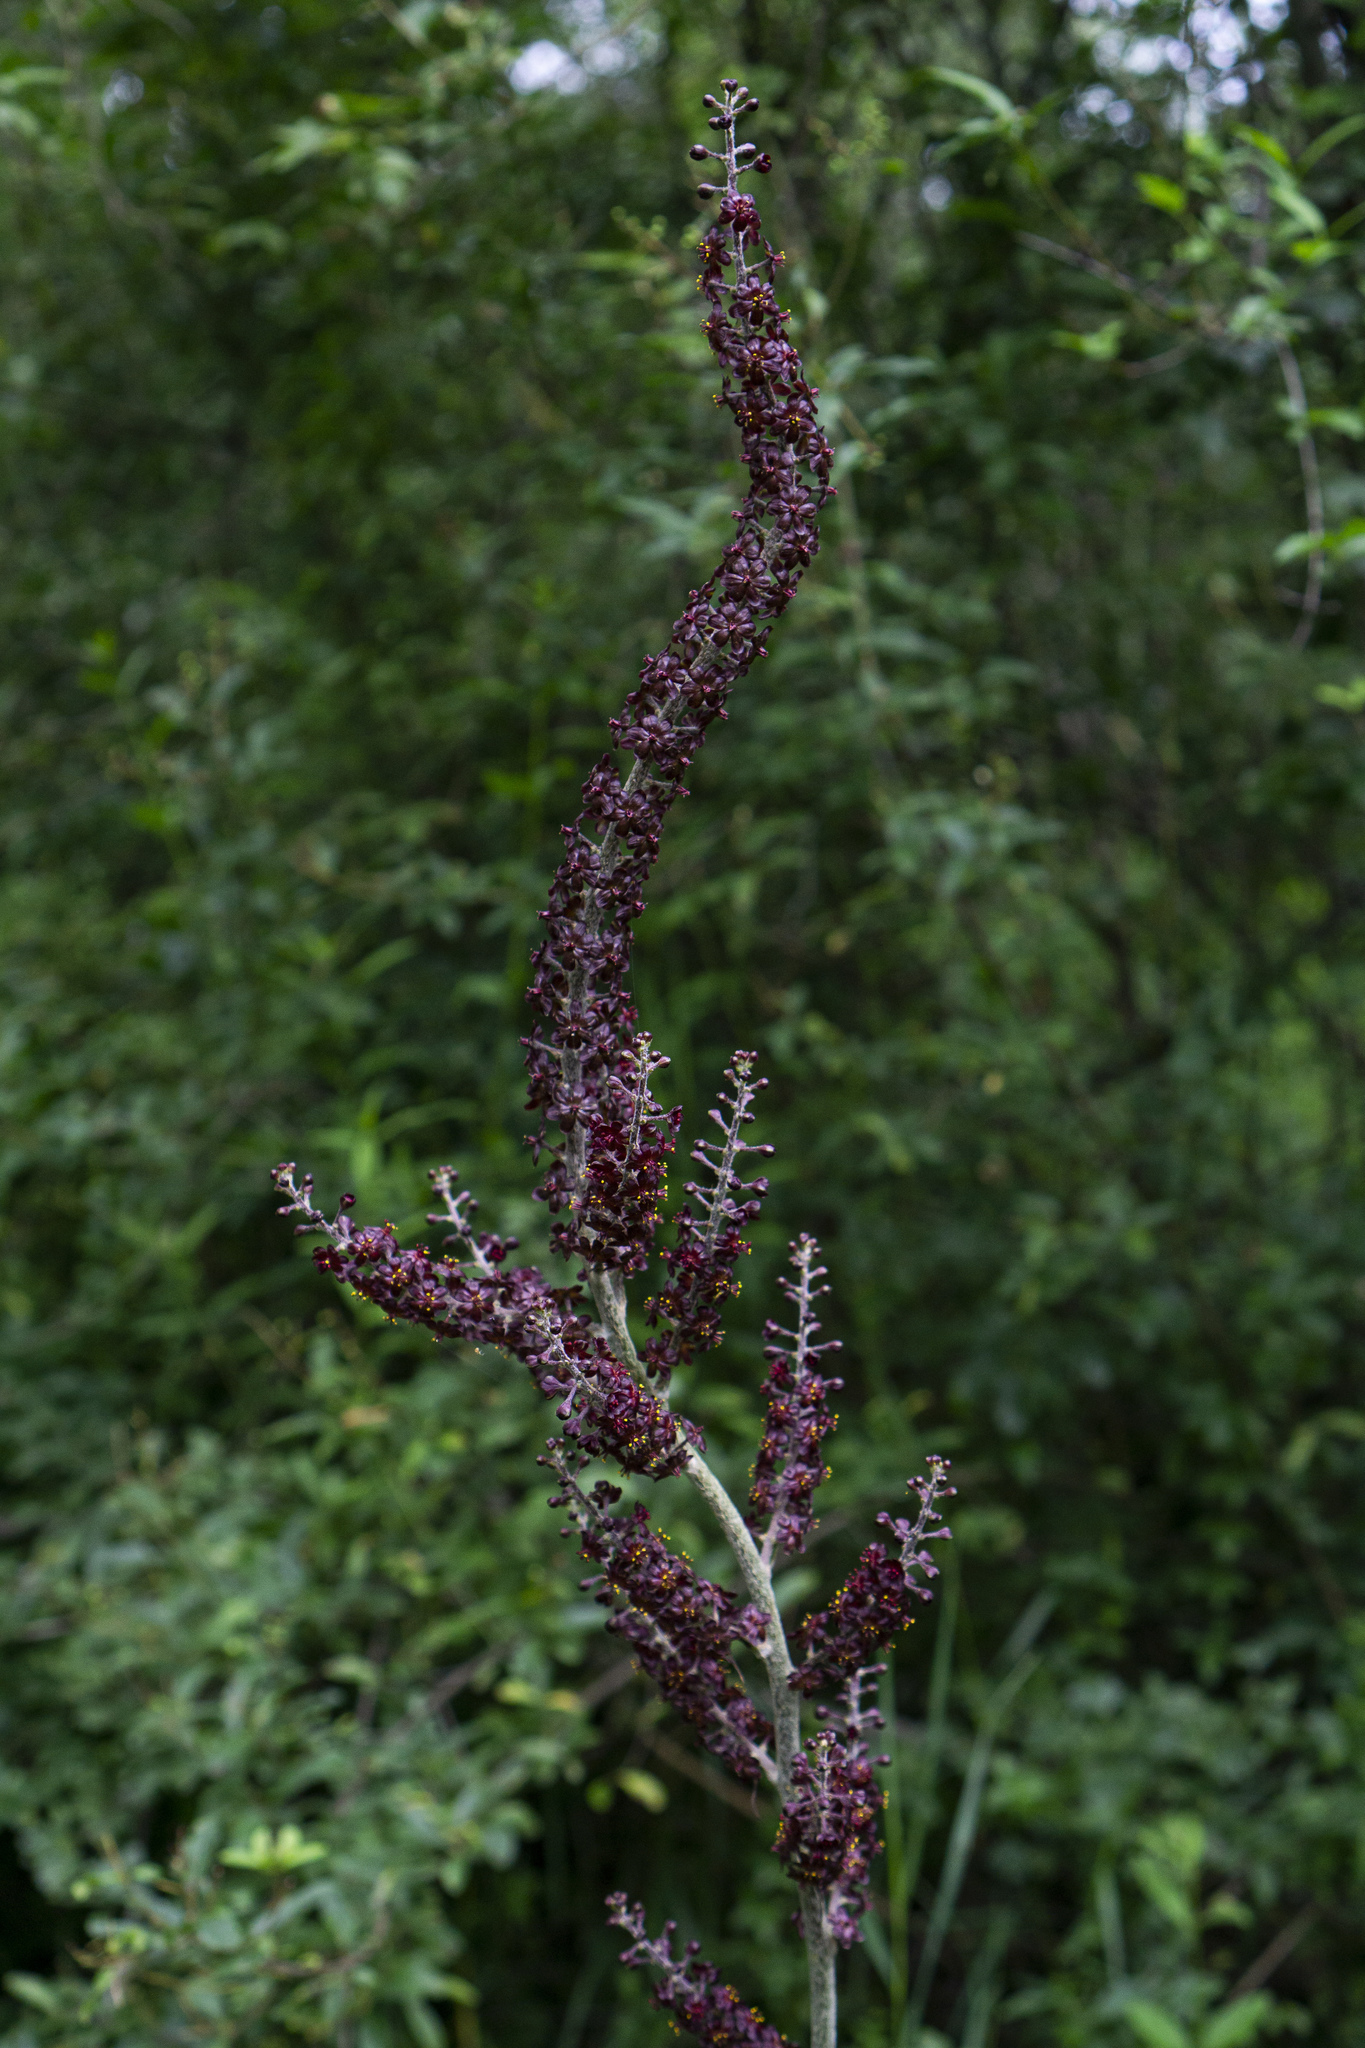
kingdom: Plantae
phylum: Tracheophyta
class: Liliopsida
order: Liliales
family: Melanthiaceae
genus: Veratrum
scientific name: Veratrum nigrum
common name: Black veratrum
